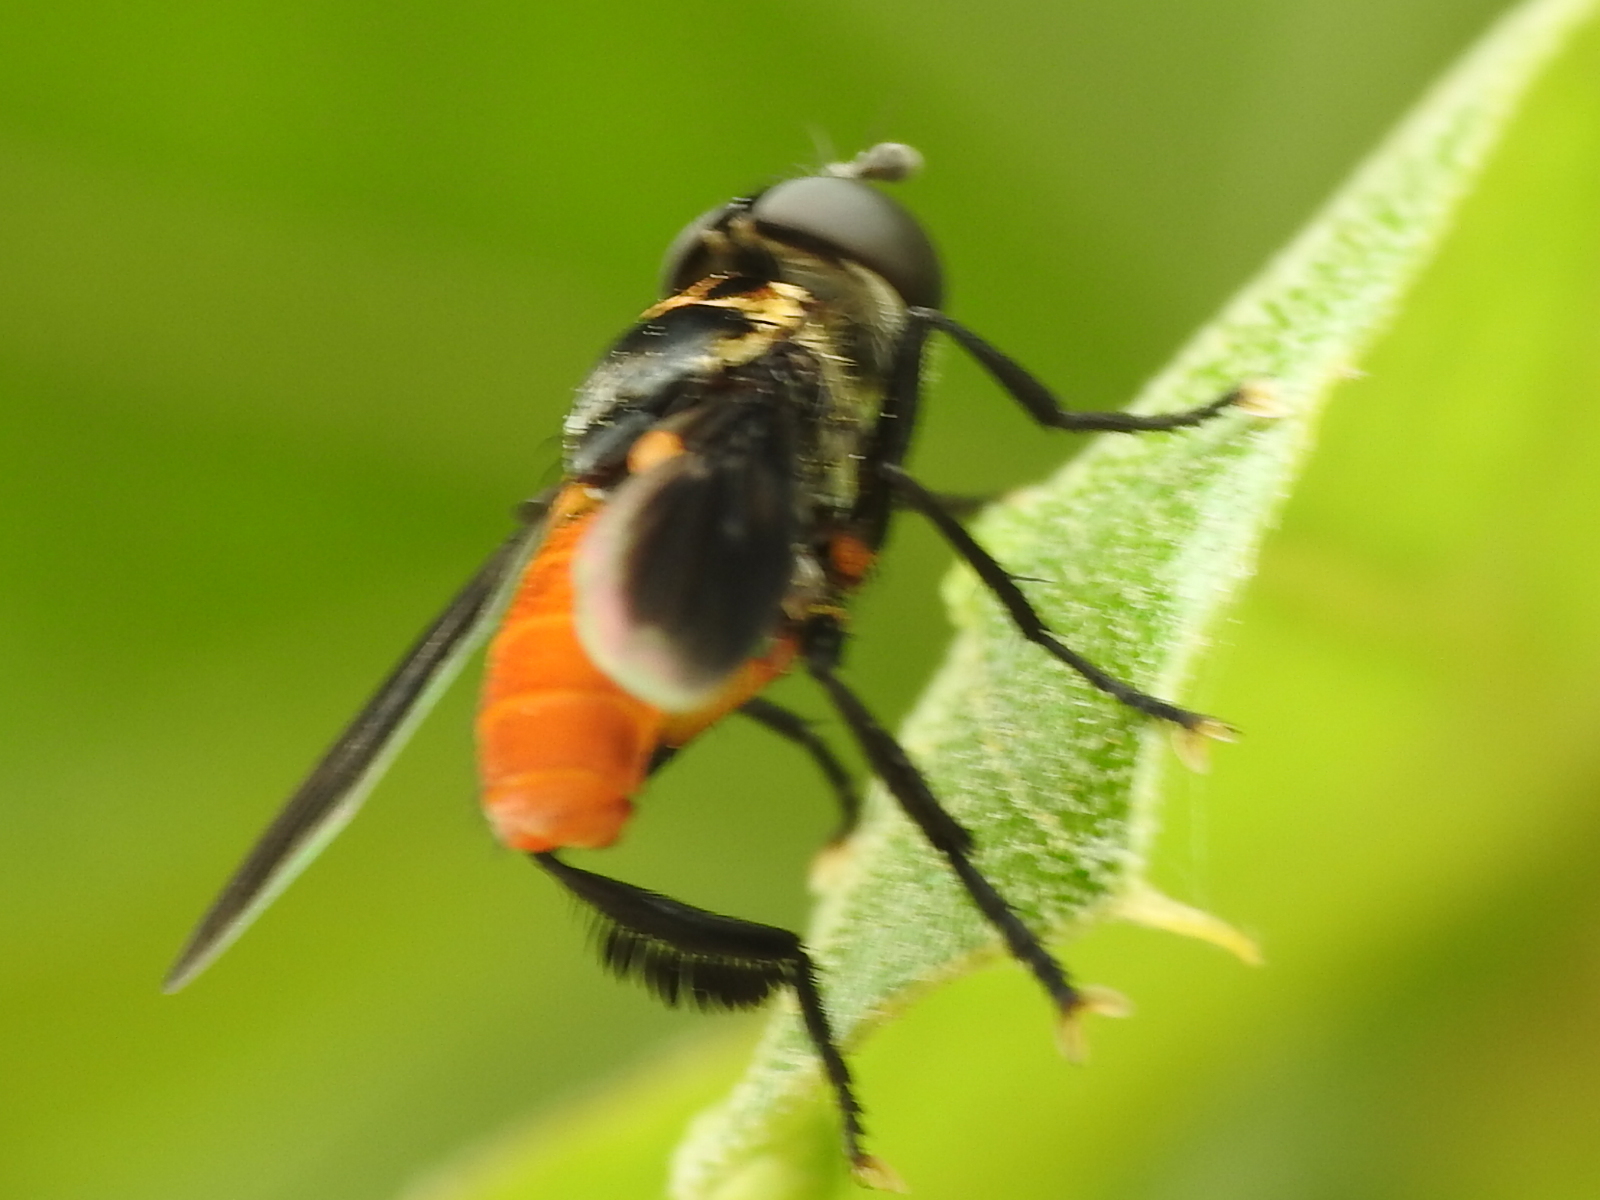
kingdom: Animalia
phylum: Arthropoda
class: Insecta
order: Diptera
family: Tachinidae
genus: Trichopoda
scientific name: Trichopoda pennipes
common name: Tachinid fly
